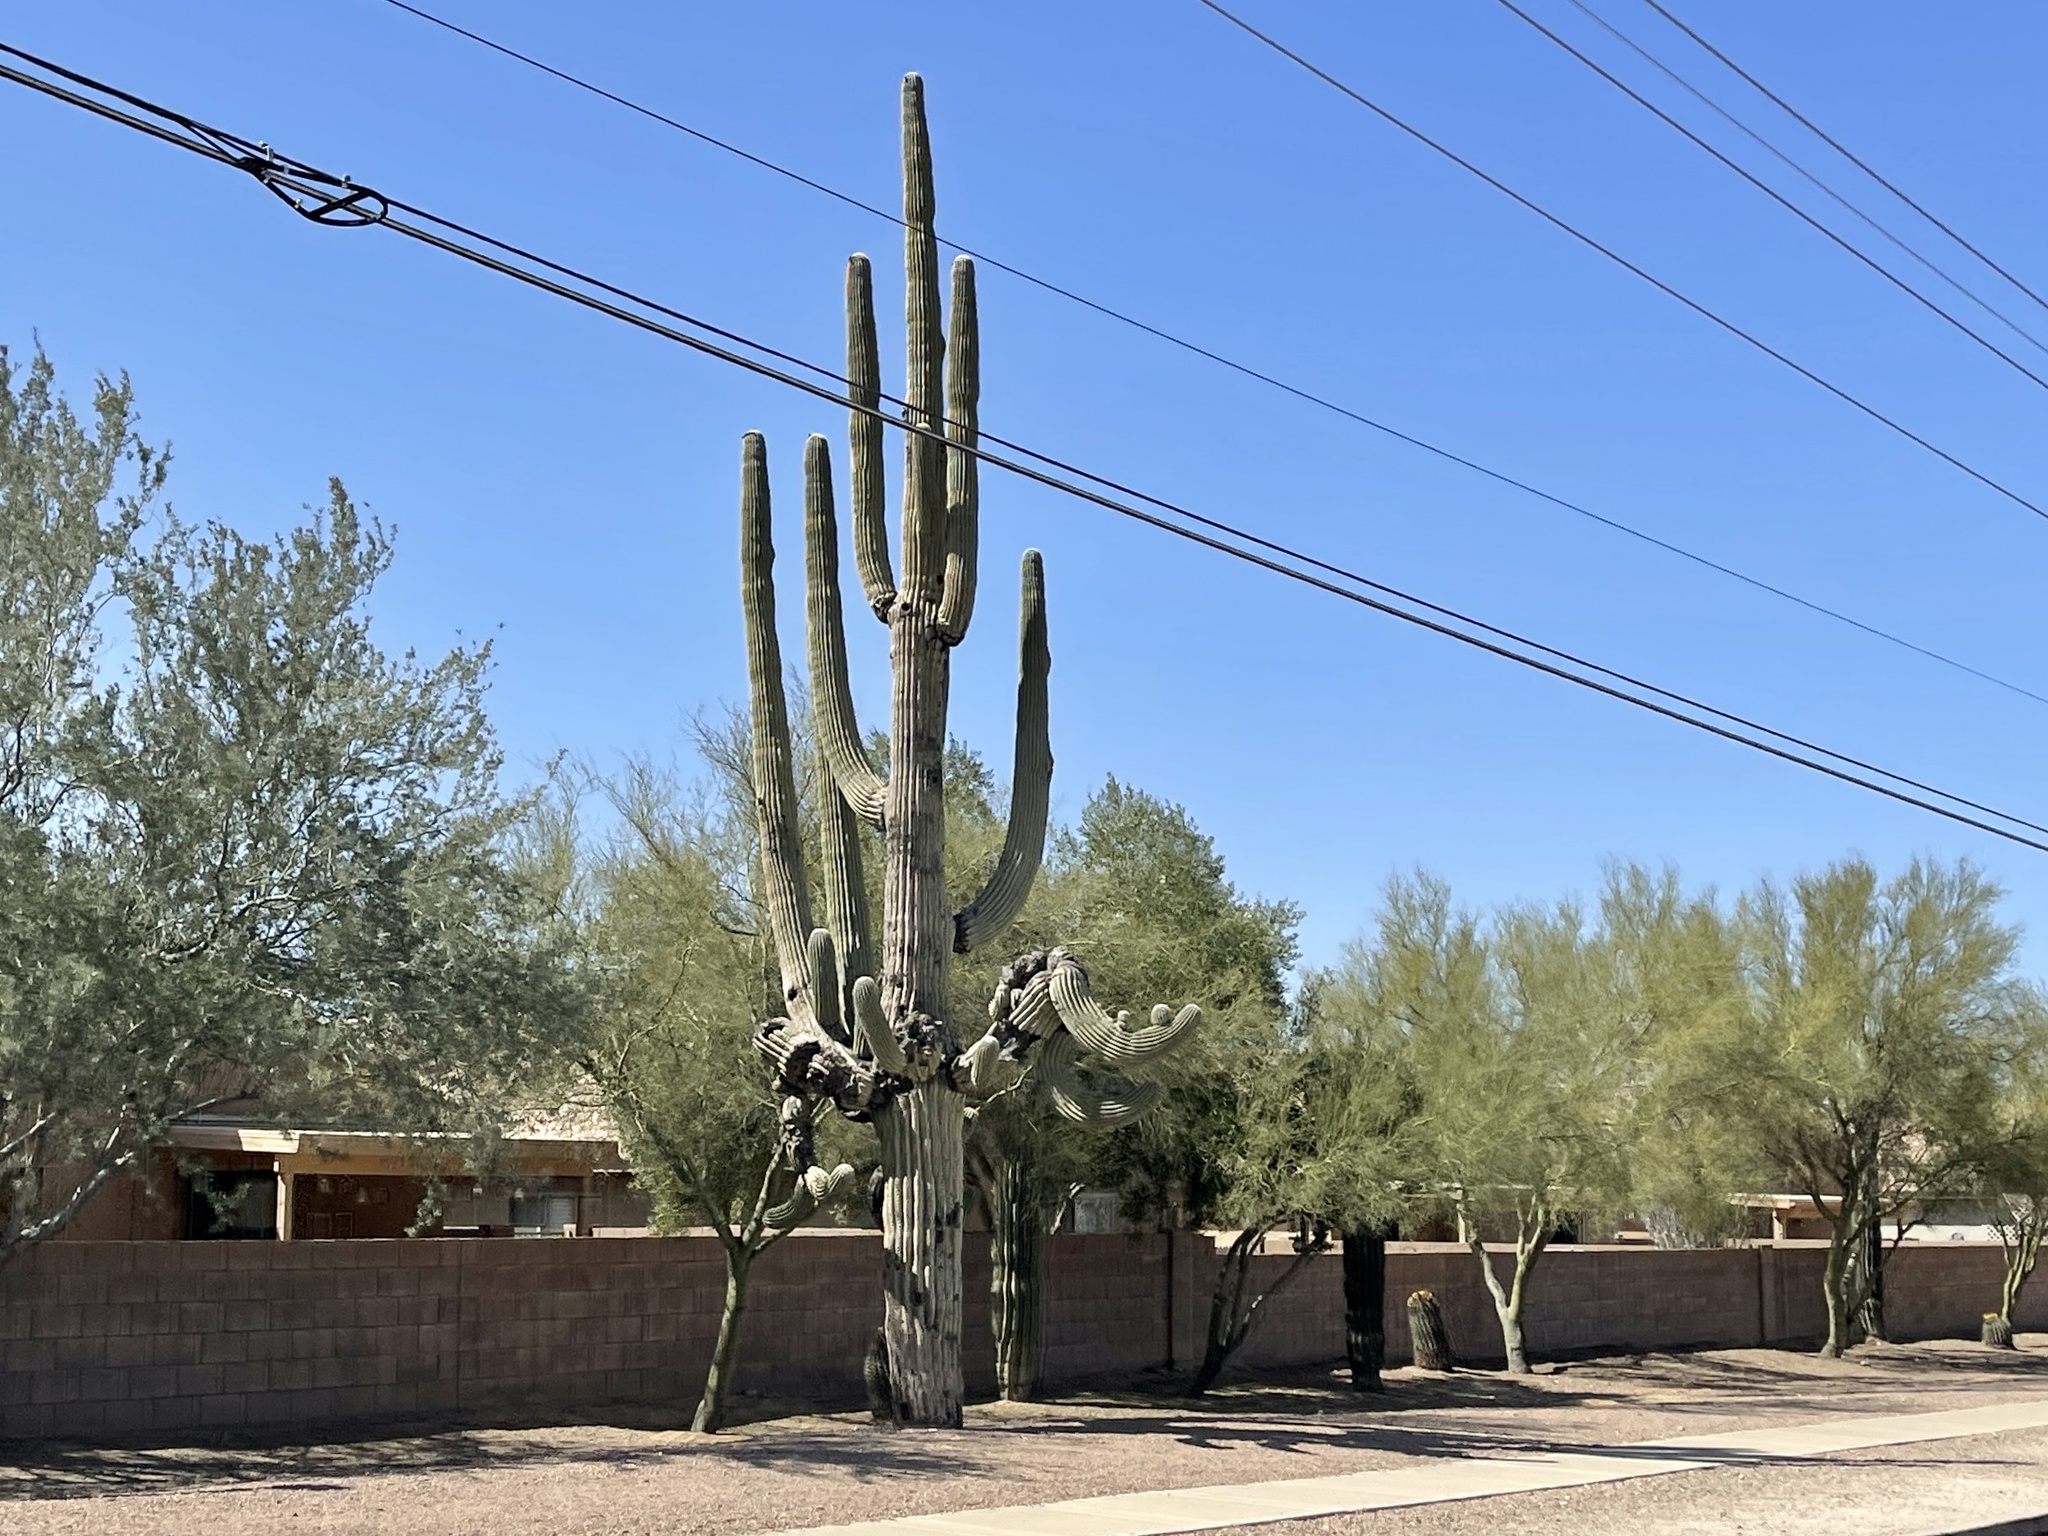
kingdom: Plantae
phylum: Tracheophyta
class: Magnoliopsida
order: Caryophyllales
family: Cactaceae
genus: Carnegiea
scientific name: Carnegiea gigantea
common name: Saguaro
